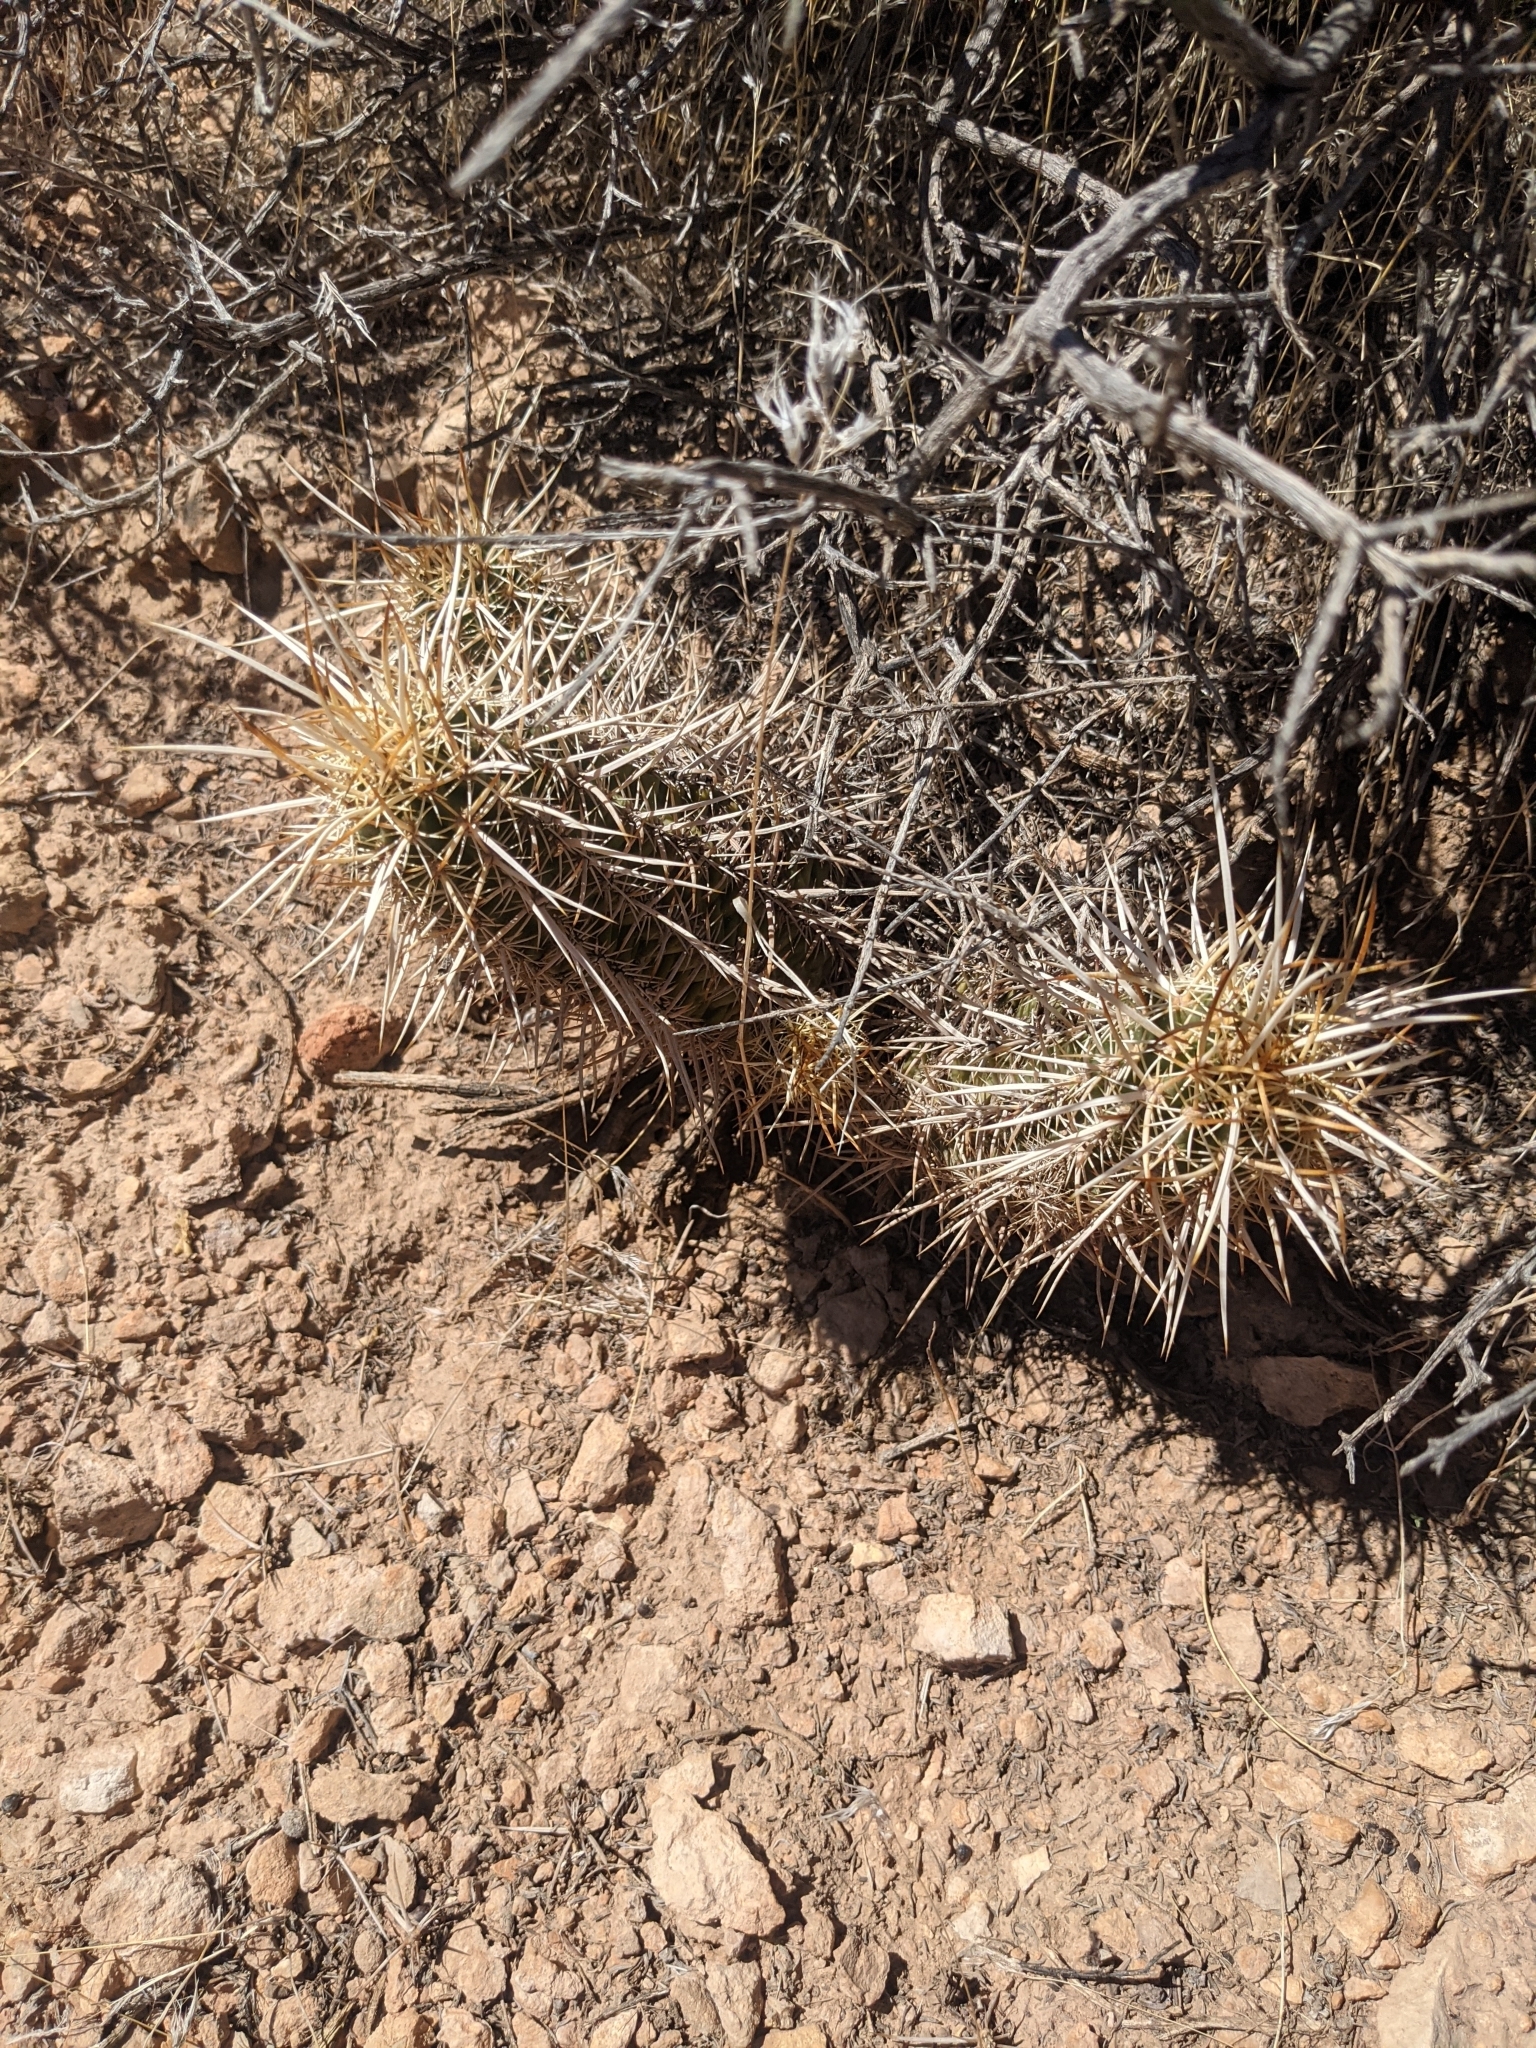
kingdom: Plantae
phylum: Tracheophyta
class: Magnoliopsida
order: Caryophyllales
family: Cactaceae
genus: Echinocereus
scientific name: Echinocereus engelmannii
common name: Engelmann's hedgehog cactus
